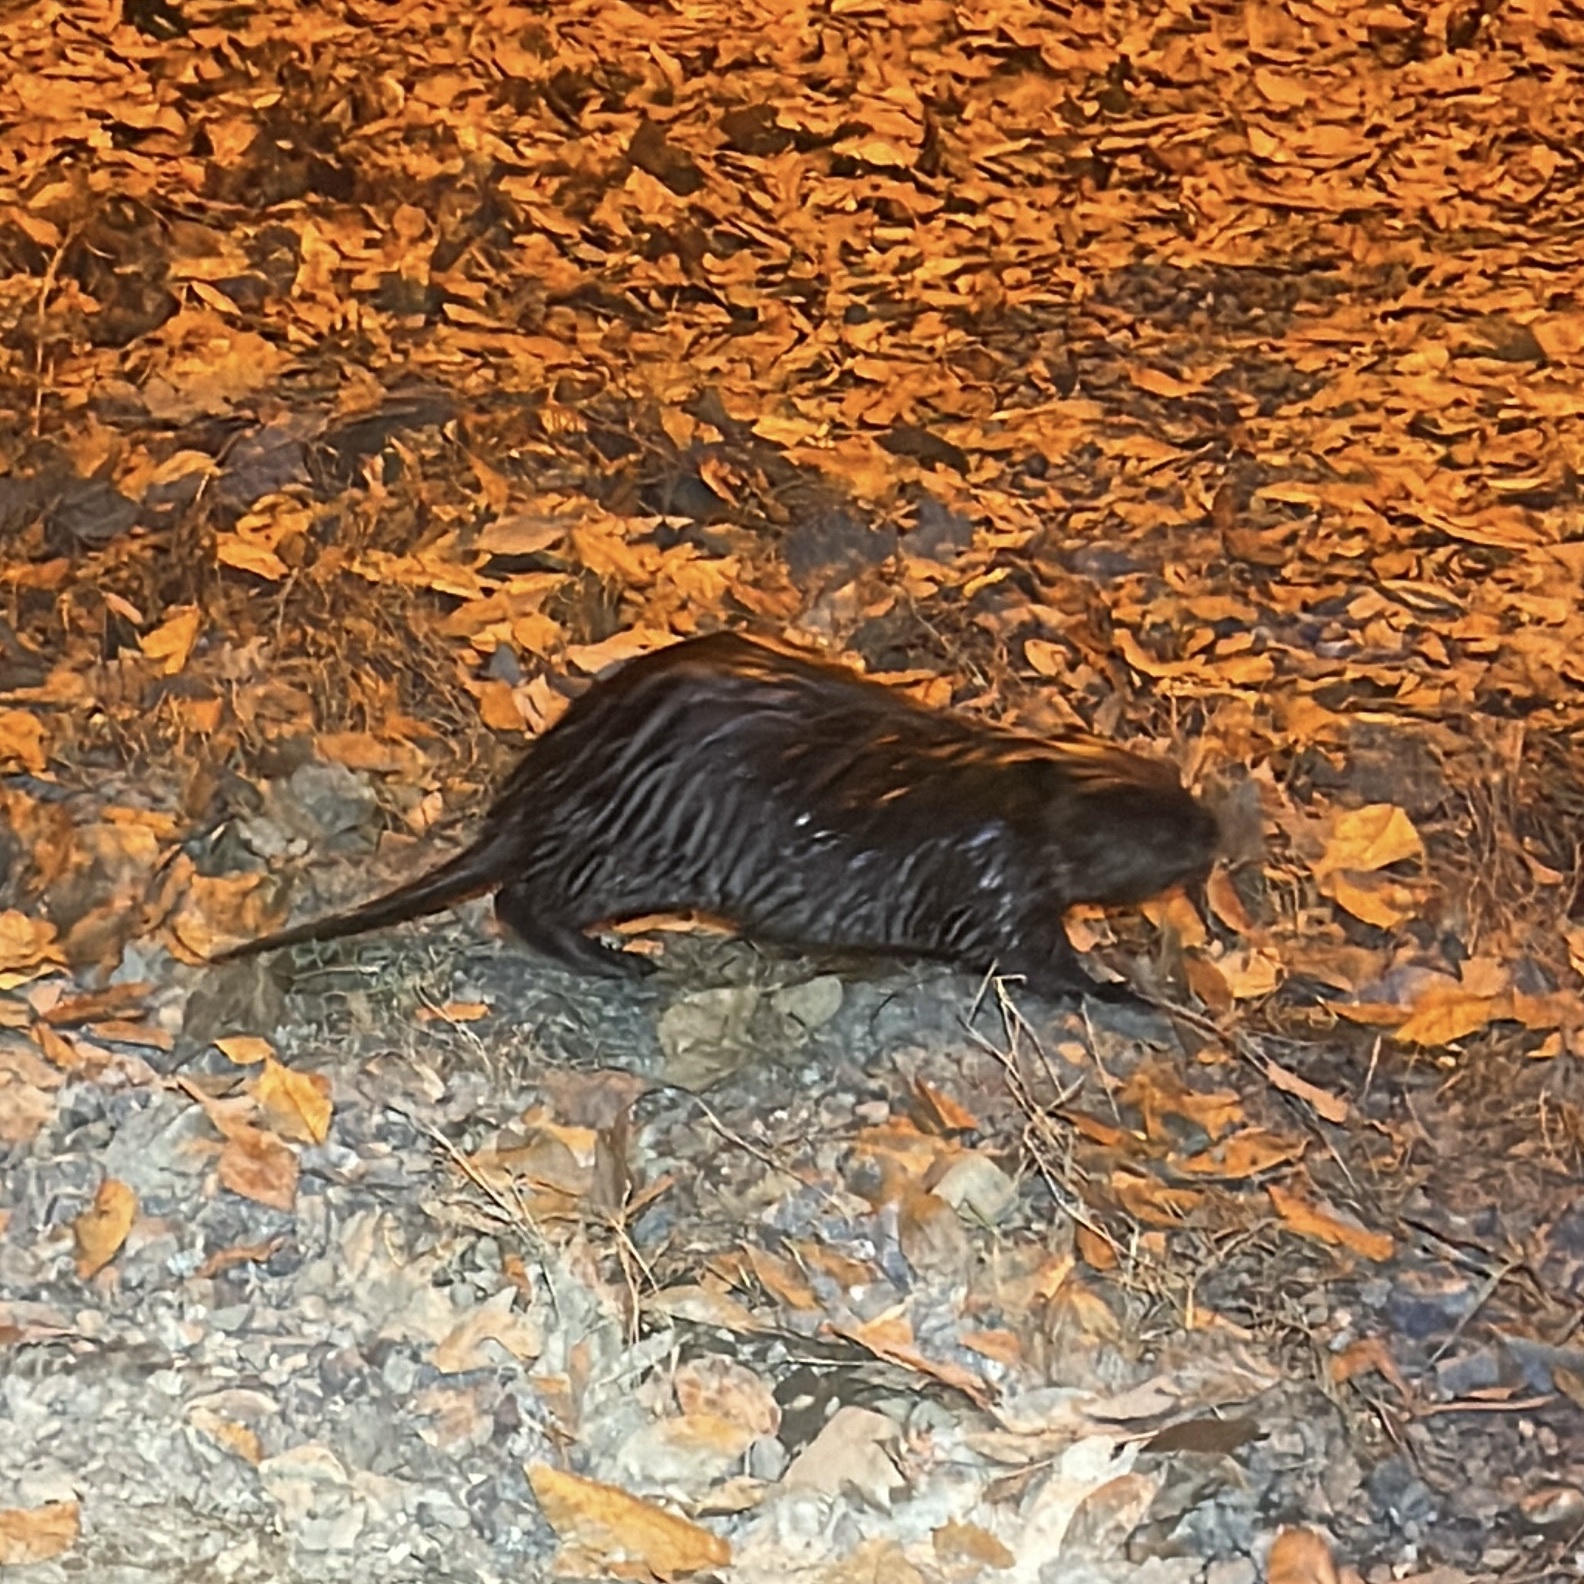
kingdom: Animalia
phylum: Chordata
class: Mammalia
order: Rodentia
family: Castoridae
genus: Castor
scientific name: Castor canadensis
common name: American beaver
